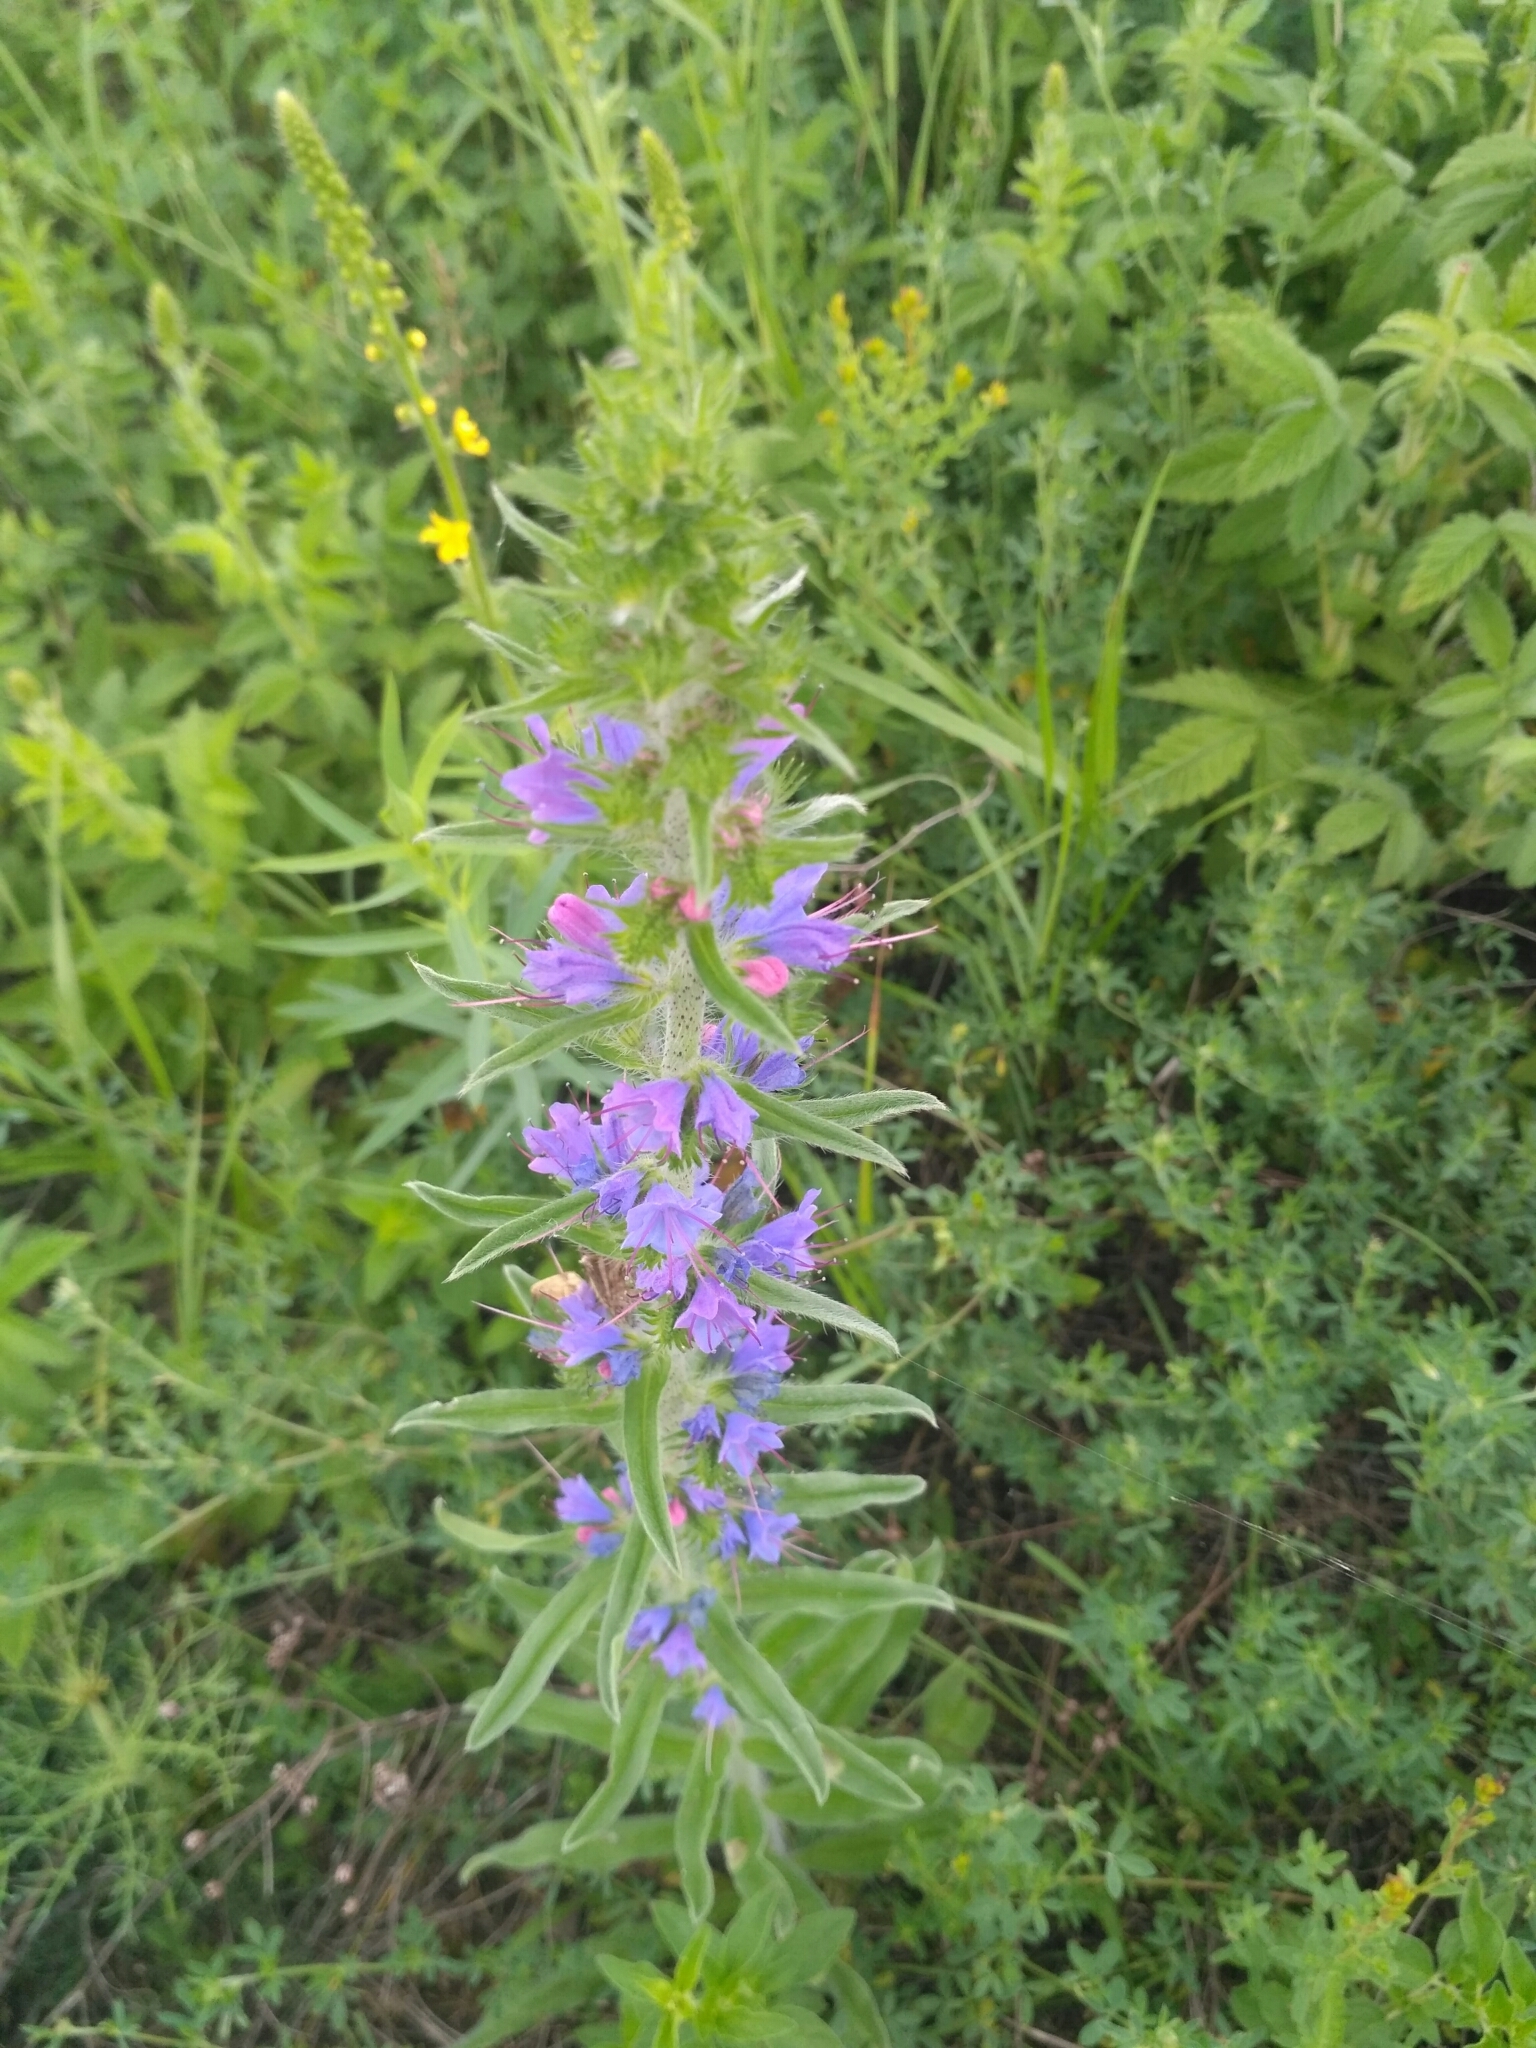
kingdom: Plantae
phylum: Tracheophyta
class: Magnoliopsida
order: Boraginales
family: Boraginaceae
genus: Echium
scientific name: Echium vulgare
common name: Common viper's bugloss
